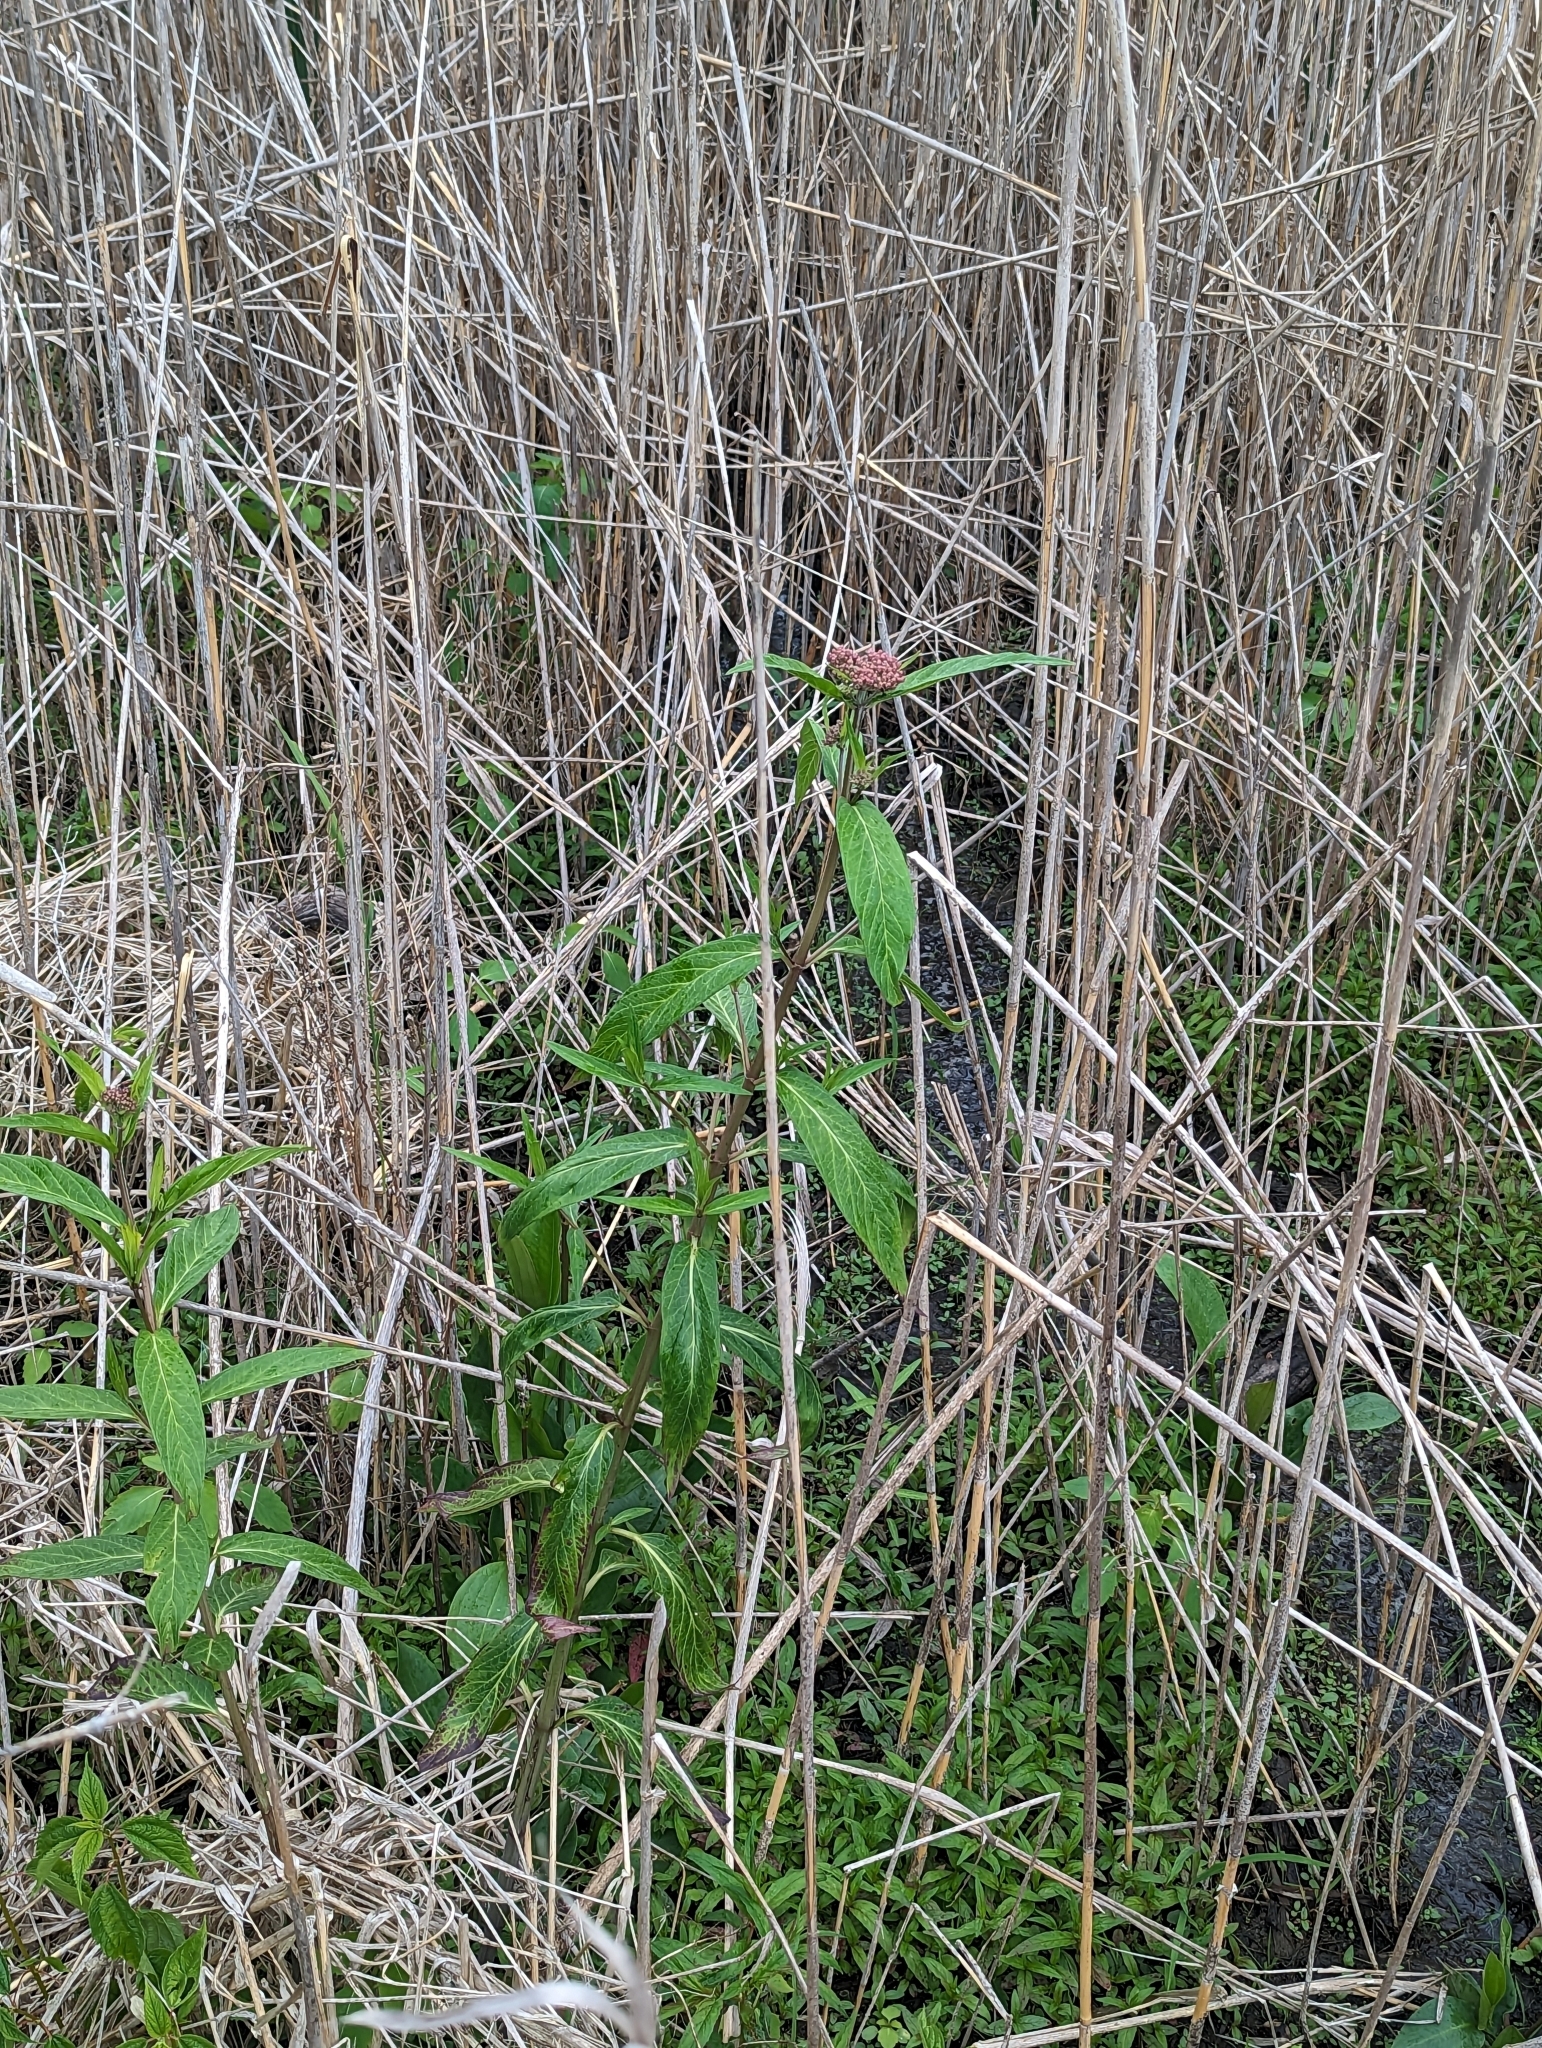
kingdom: Plantae
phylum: Tracheophyta
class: Magnoliopsida
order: Gentianales
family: Apocynaceae
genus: Asclepias
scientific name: Asclepias incarnata
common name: Swamp milkweed
